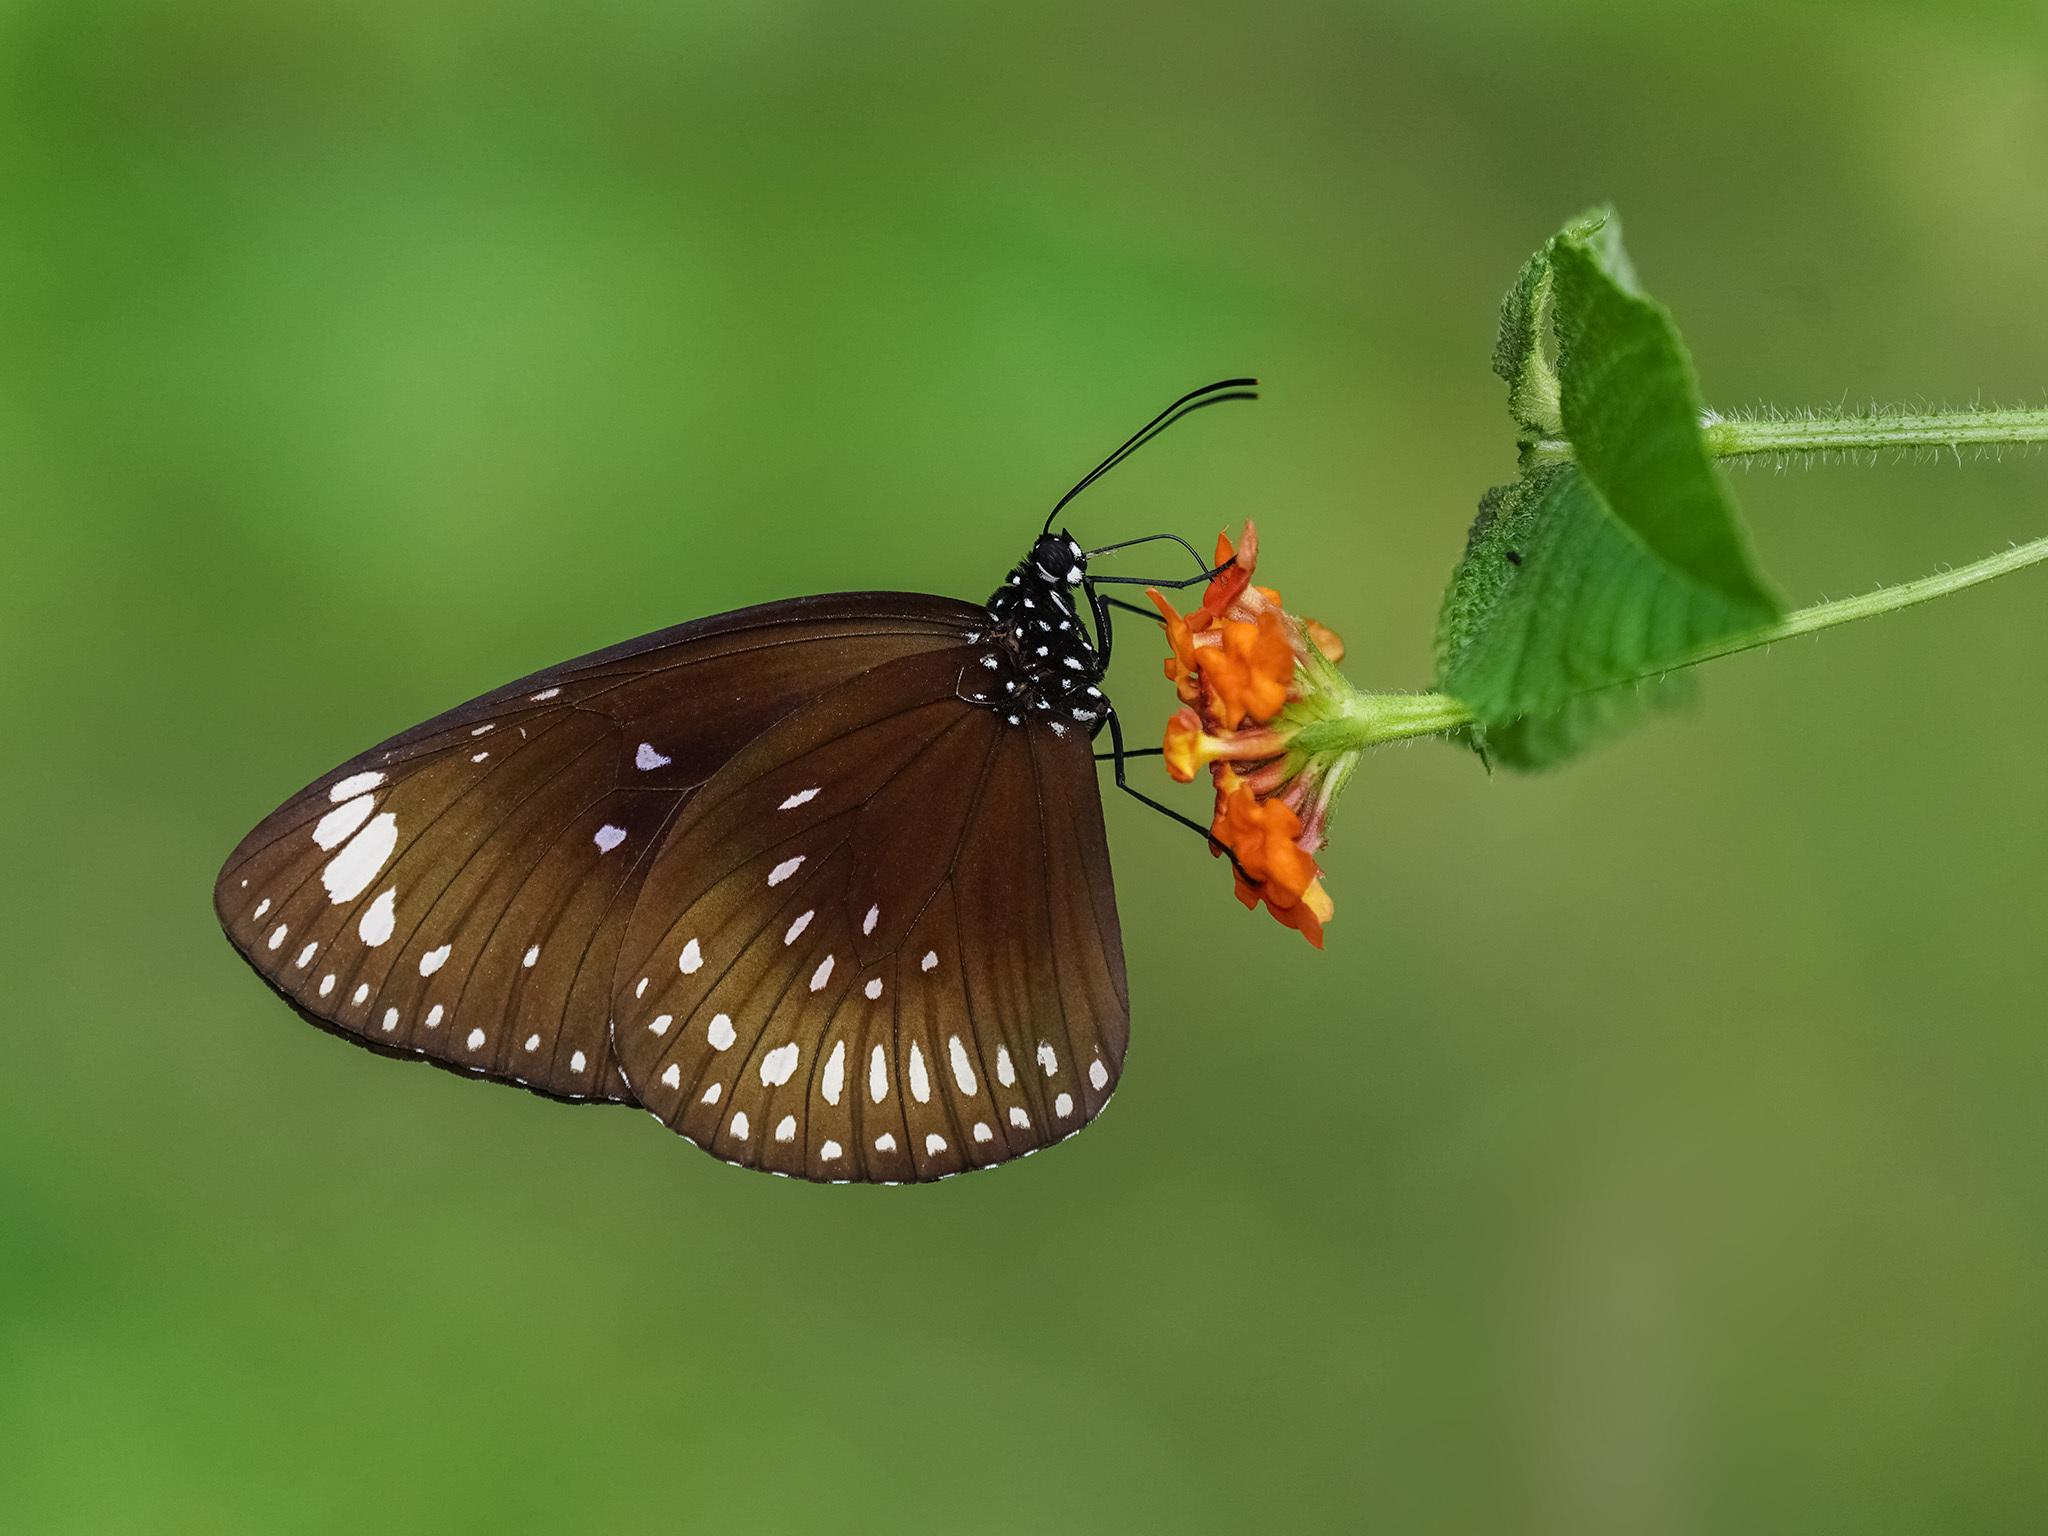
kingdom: Animalia
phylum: Arthropoda
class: Insecta
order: Lepidoptera
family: Nymphalidae
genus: Euploea
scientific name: Euploea midamus
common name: Blue-spotted crow butterfly
